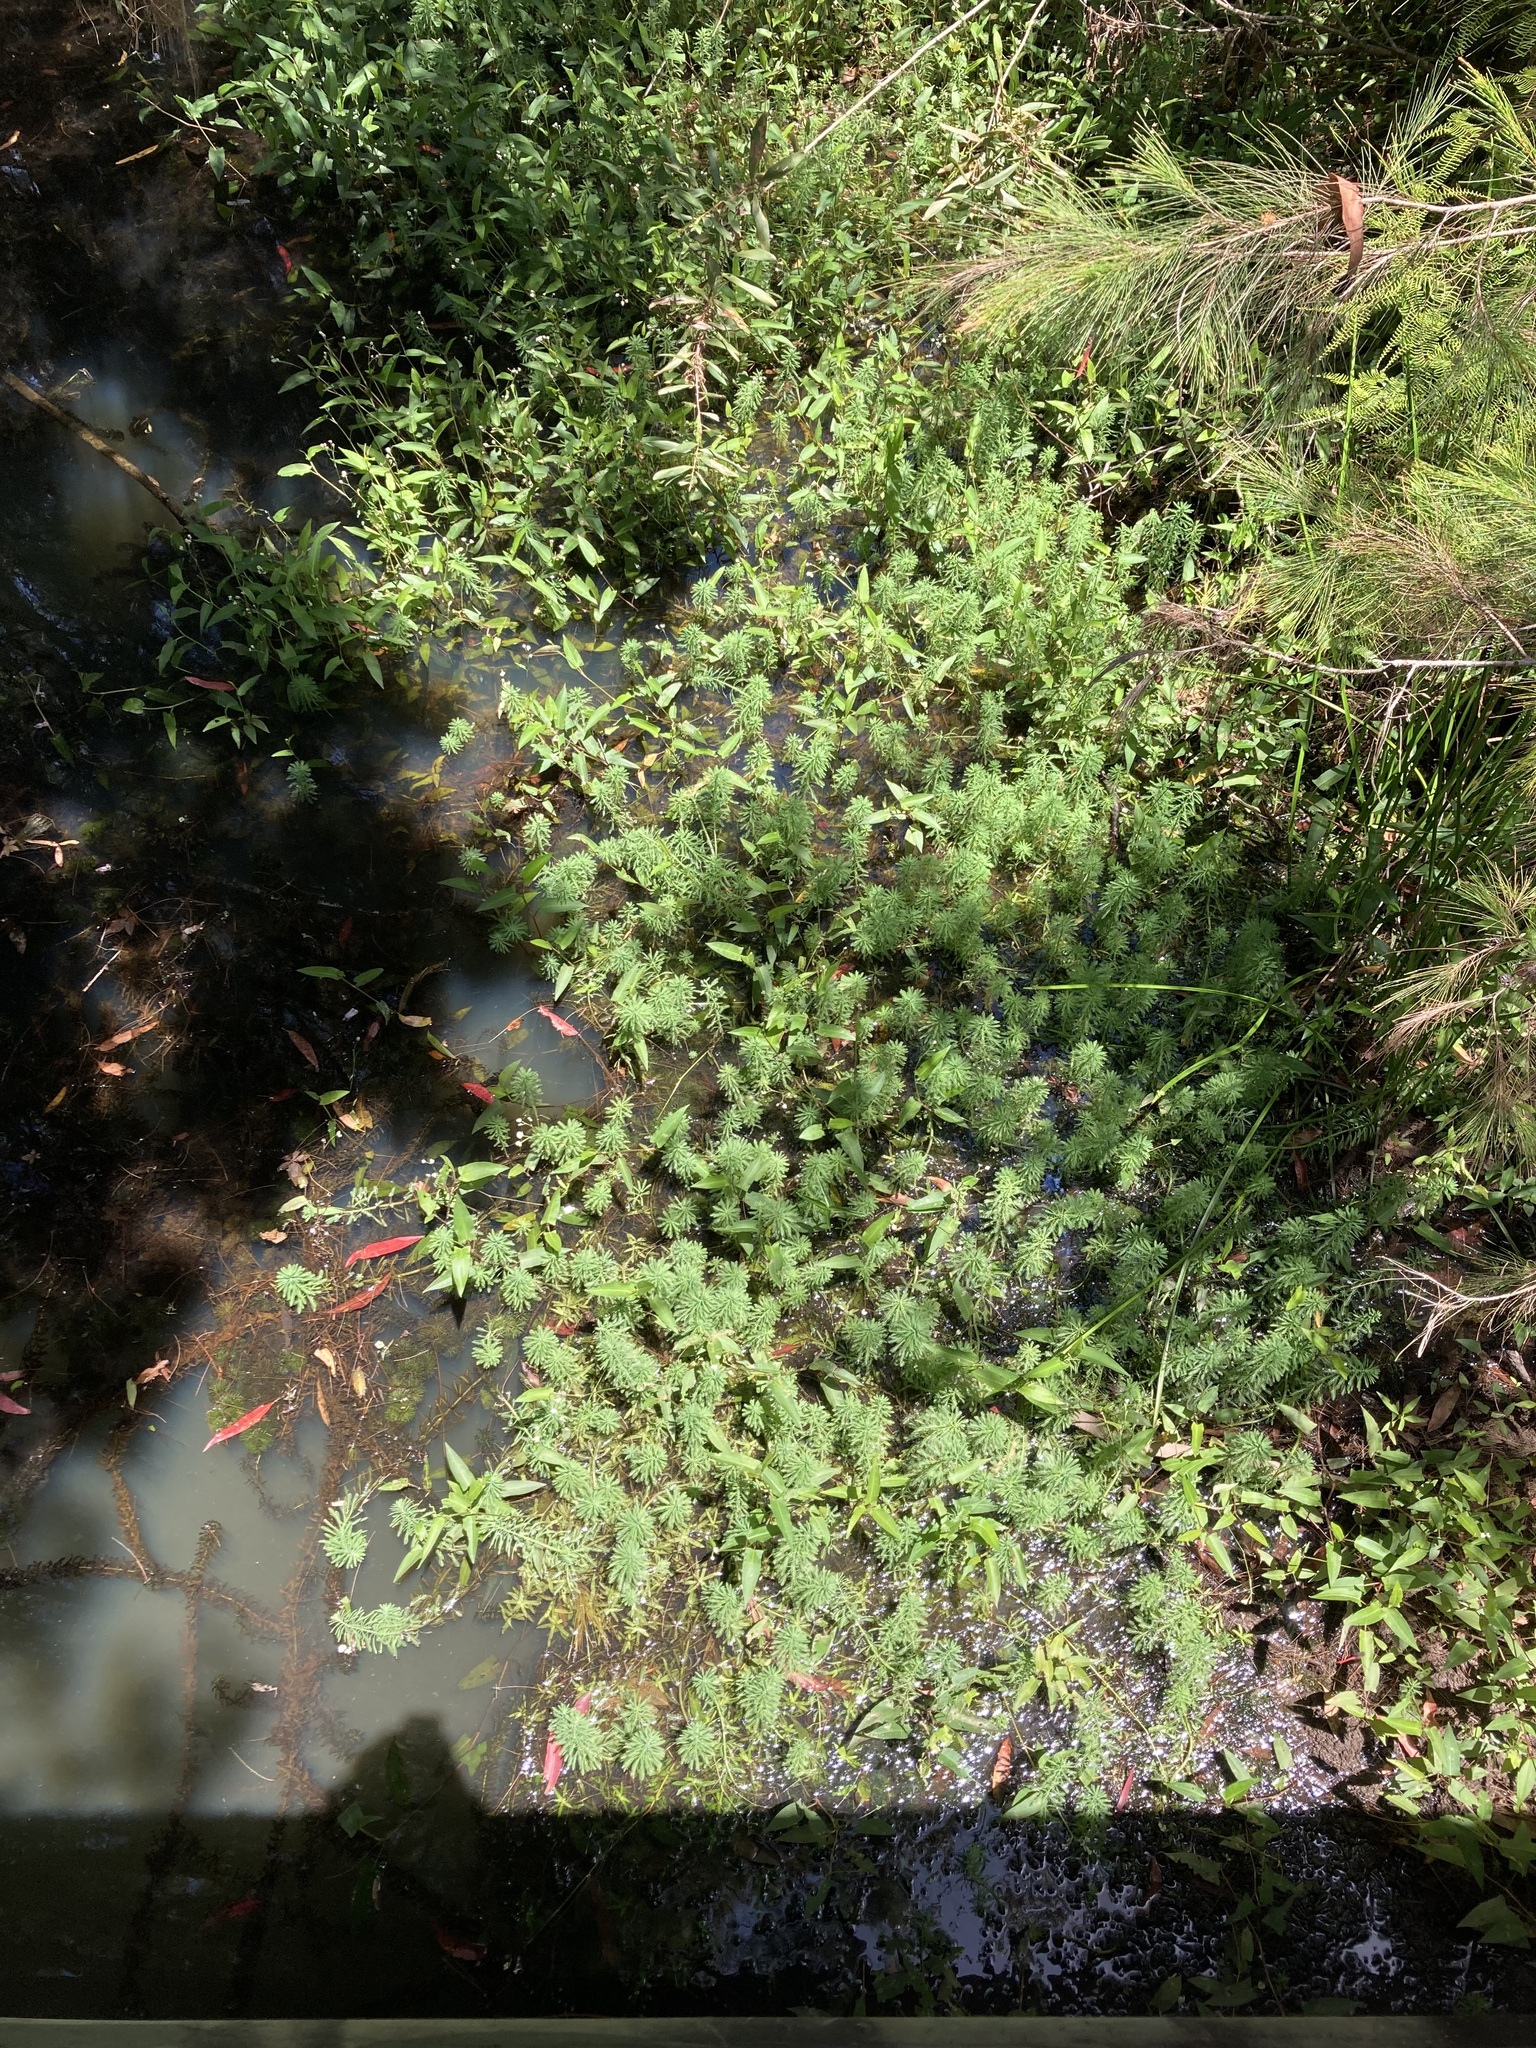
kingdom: Plantae
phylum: Tracheophyta
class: Magnoliopsida
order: Saxifragales
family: Haloragaceae
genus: Myriophyllum
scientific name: Myriophyllum aquaticum
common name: Parrot's feather
